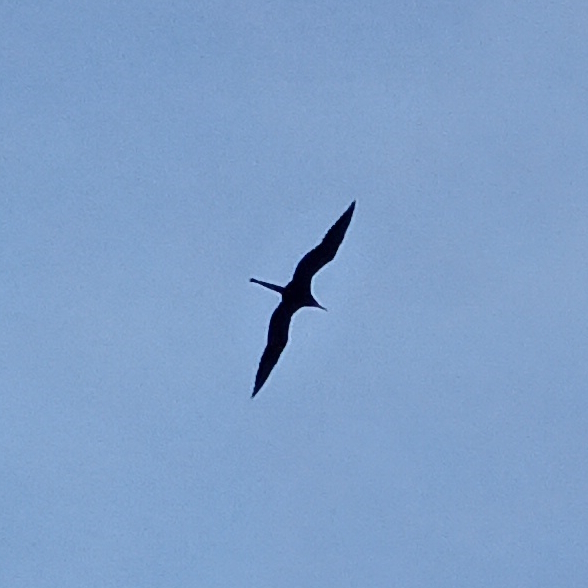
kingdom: Animalia
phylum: Chordata
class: Aves
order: Suliformes
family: Fregatidae
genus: Fregata
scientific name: Fregata magnificens
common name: Magnificent frigatebird
